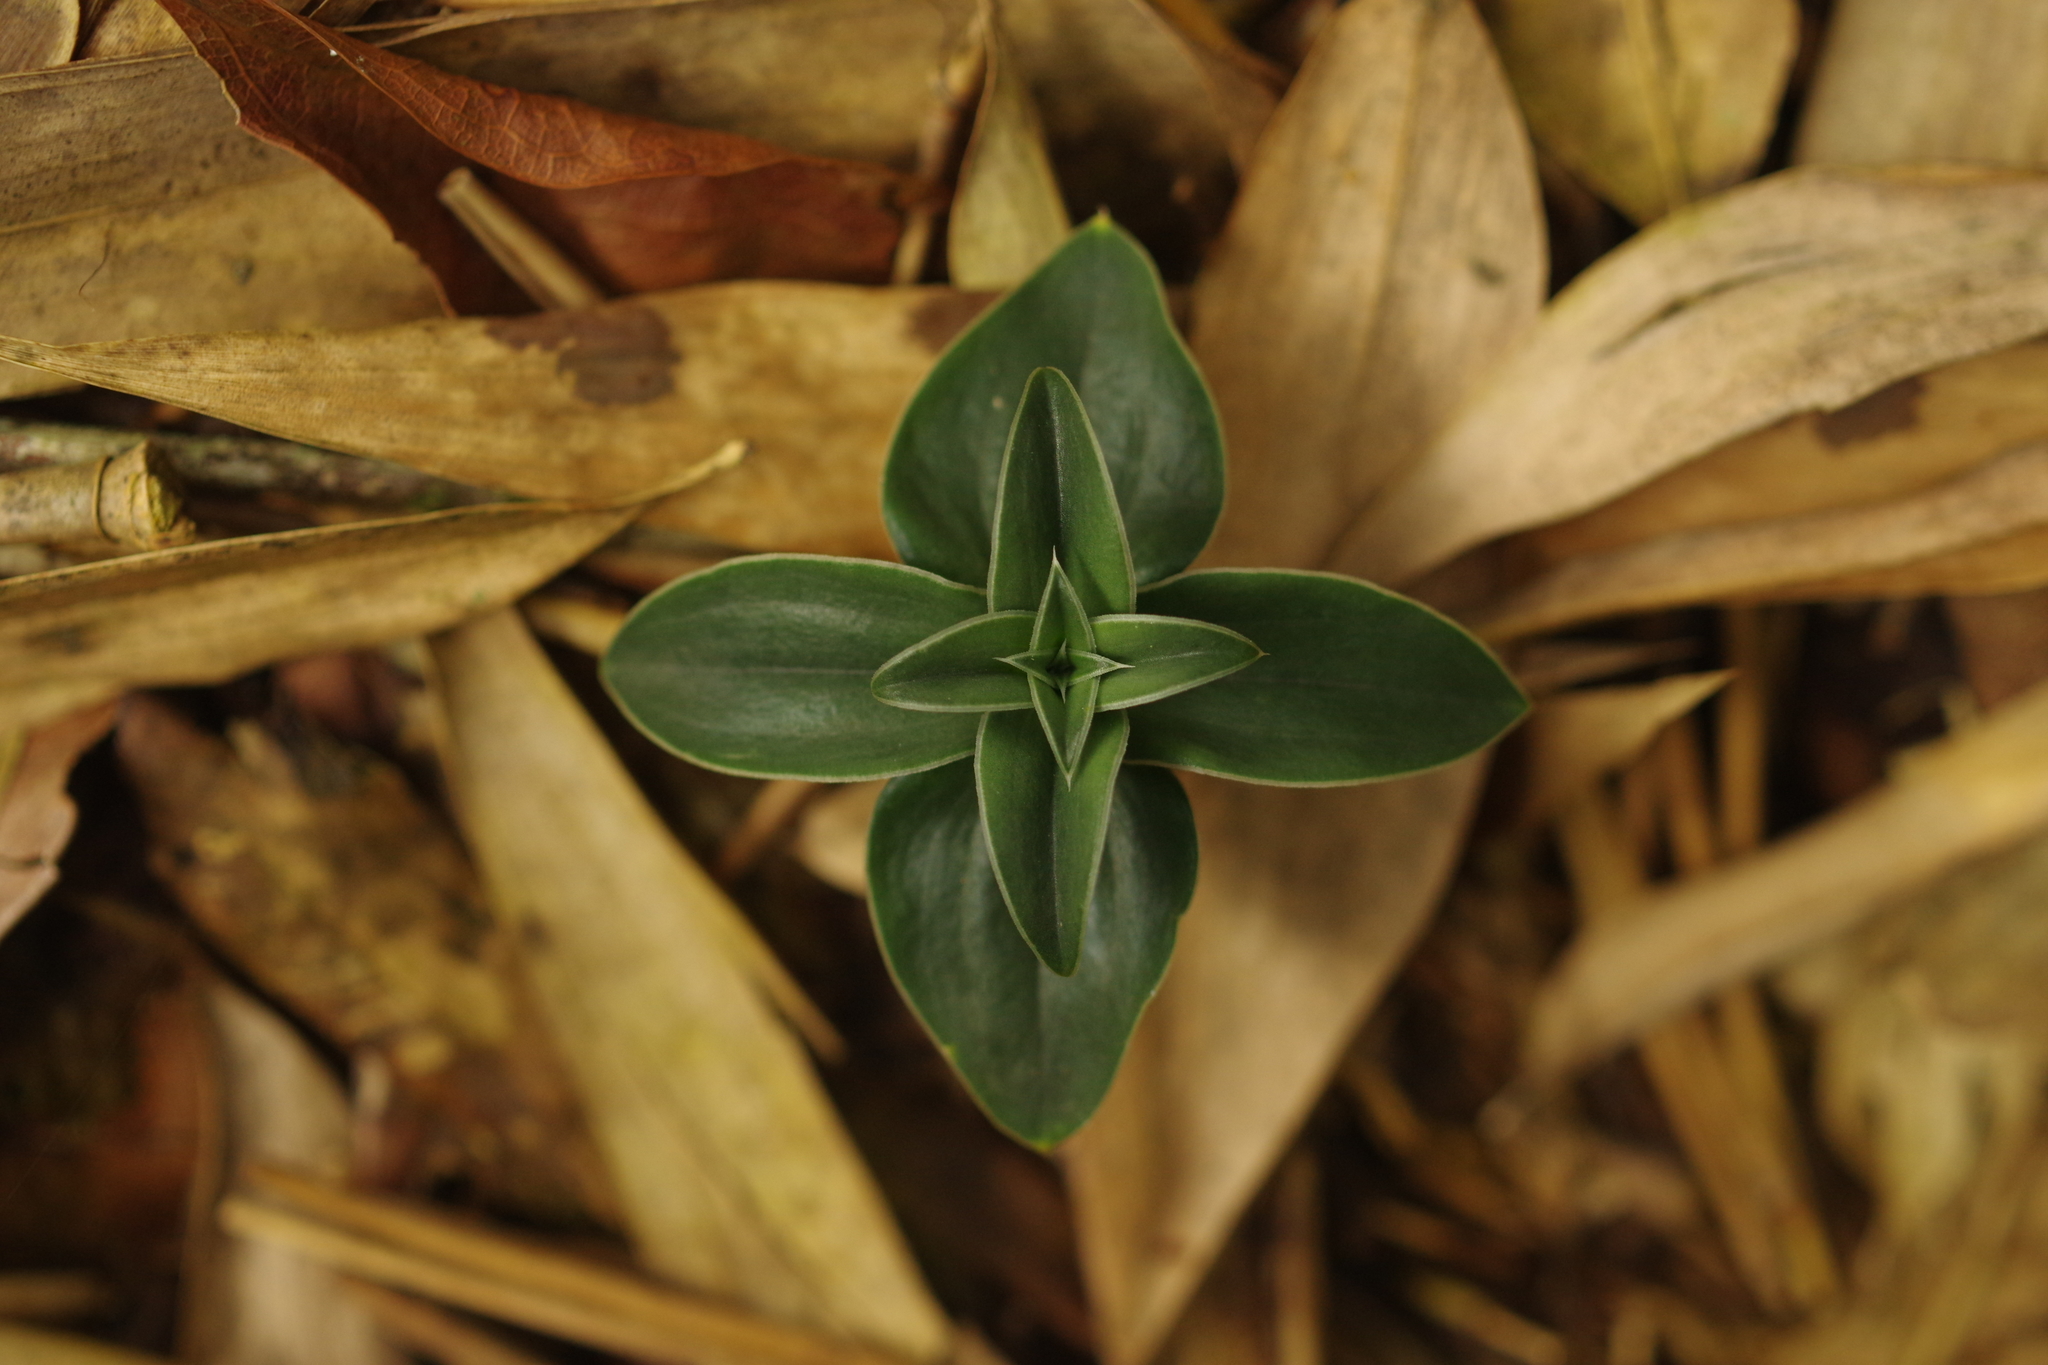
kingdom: Plantae
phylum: Tracheophyta
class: Magnoliopsida
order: Gentianales
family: Gentianaceae
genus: Gentiana
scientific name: Gentiana bambuseti
